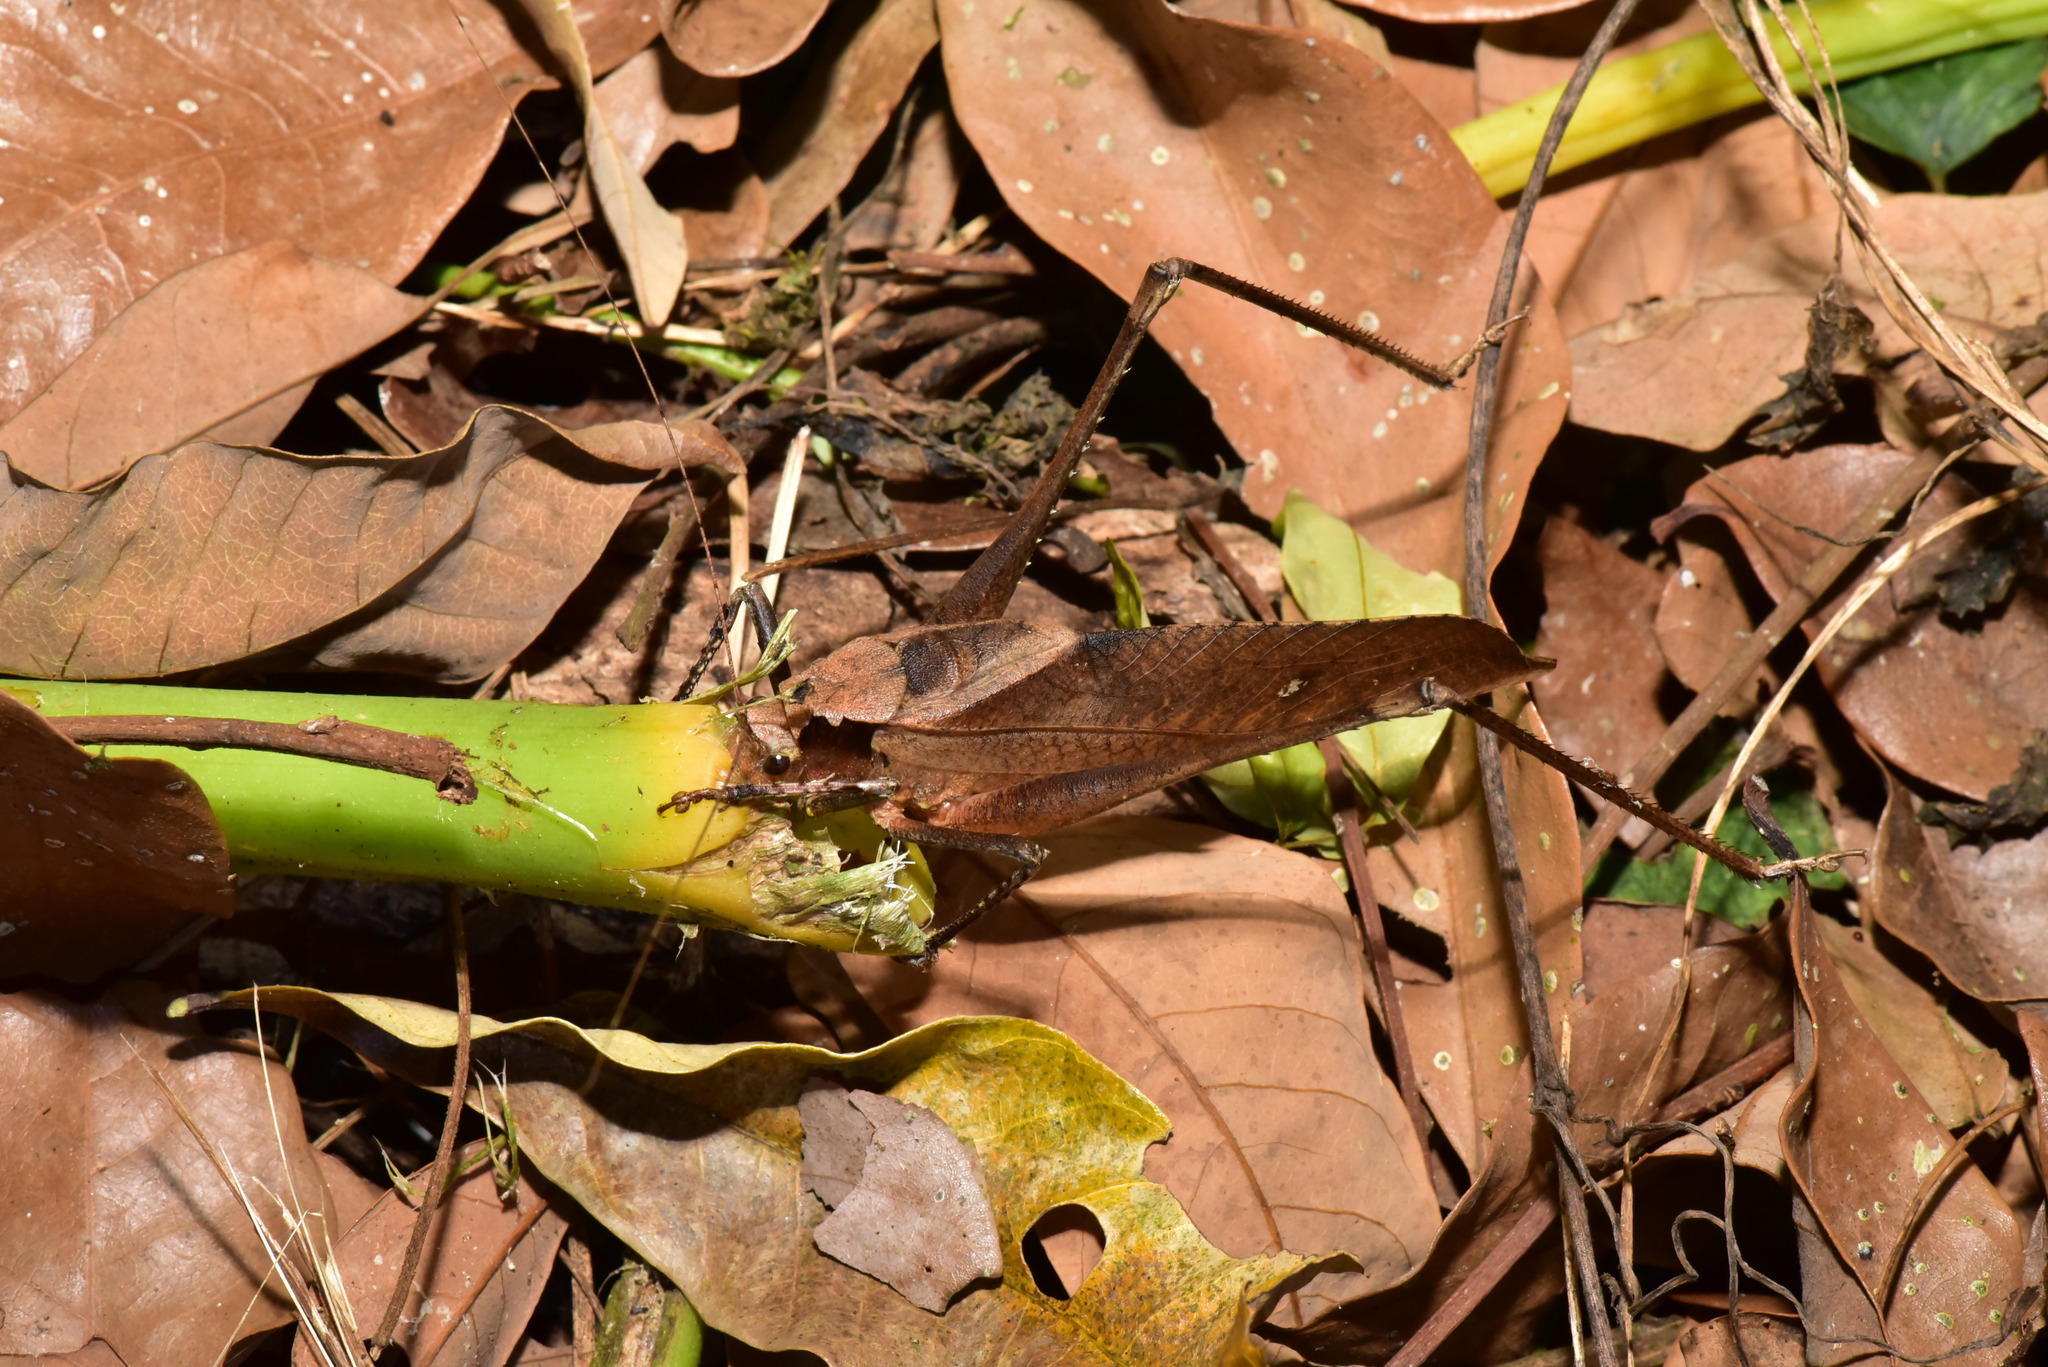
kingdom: Animalia
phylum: Arthropoda
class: Insecta
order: Orthoptera
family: Tettigoniidae
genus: Mecopoda
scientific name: Mecopoda elongata
